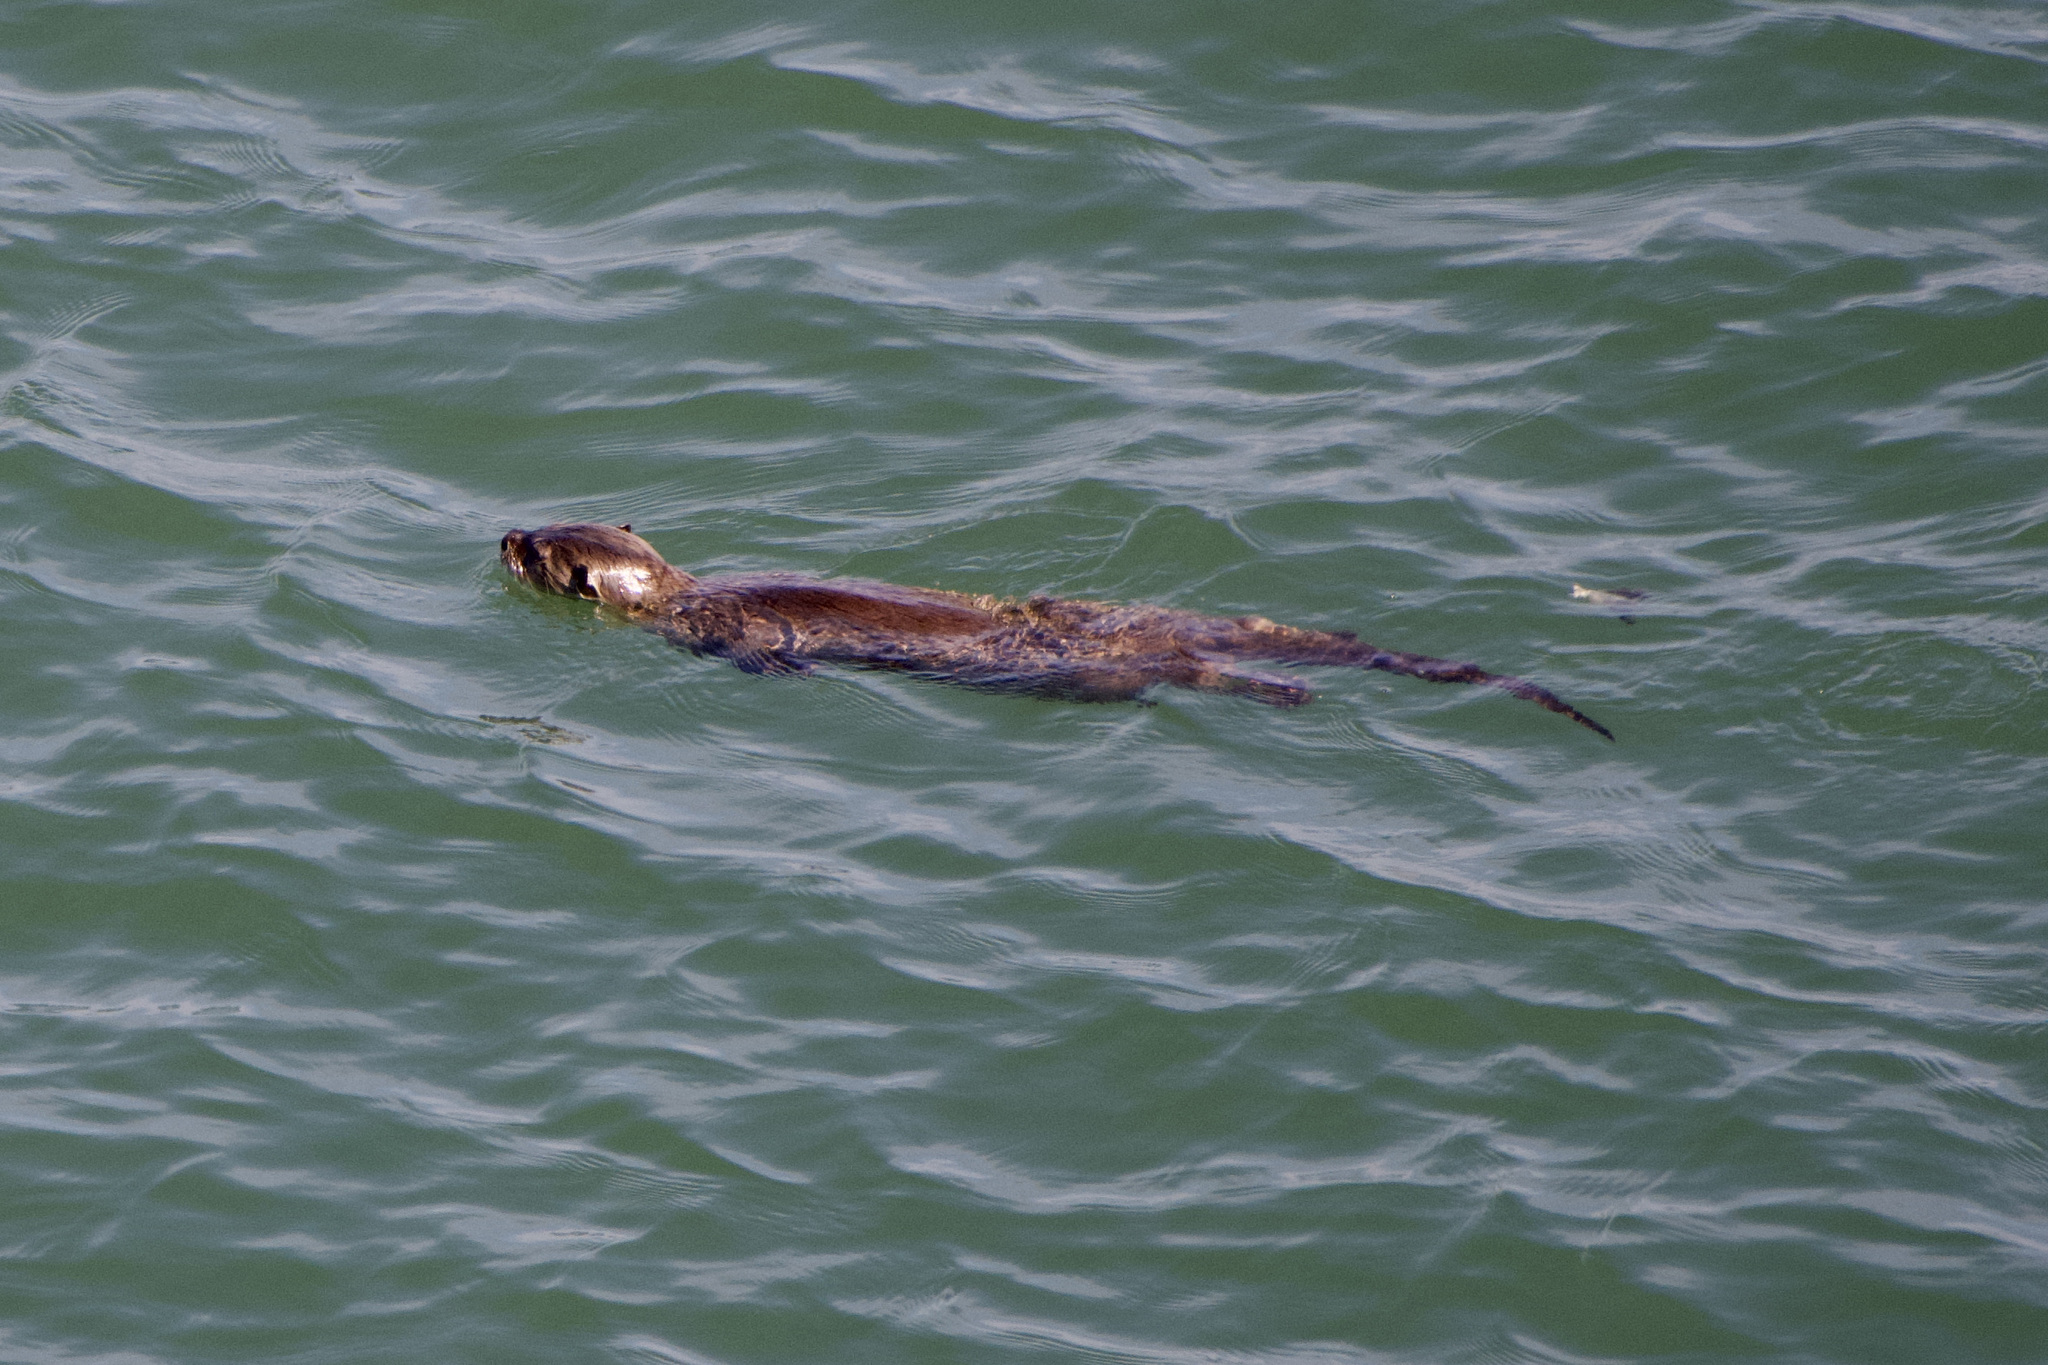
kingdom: Animalia
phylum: Chordata
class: Mammalia
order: Carnivora
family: Mustelidae
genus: Lontra
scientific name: Lontra canadensis
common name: North american river otter
